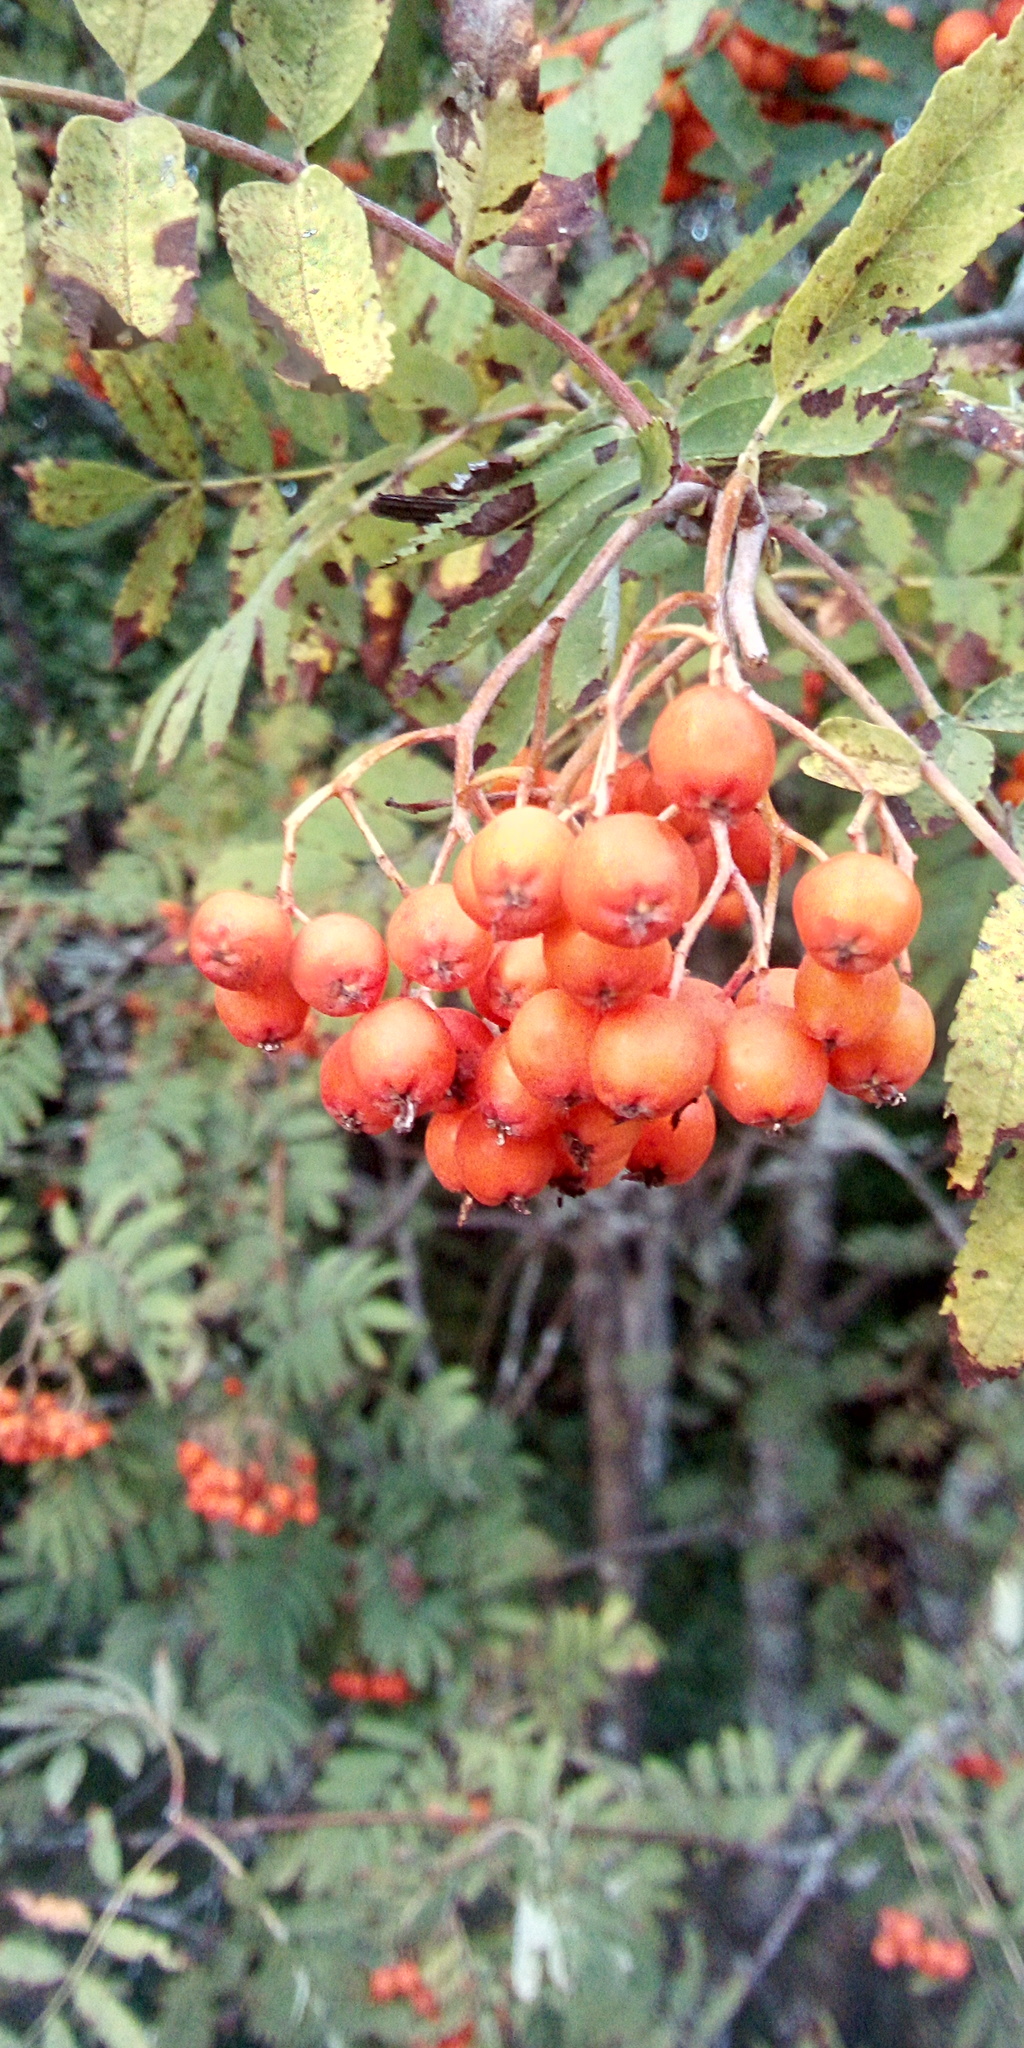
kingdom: Plantae
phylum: Tracheophyta
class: Magnoliopsida
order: Rosales
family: Rosaceae
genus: Sorbus
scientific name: Sorbus aucuparia
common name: Rowan
